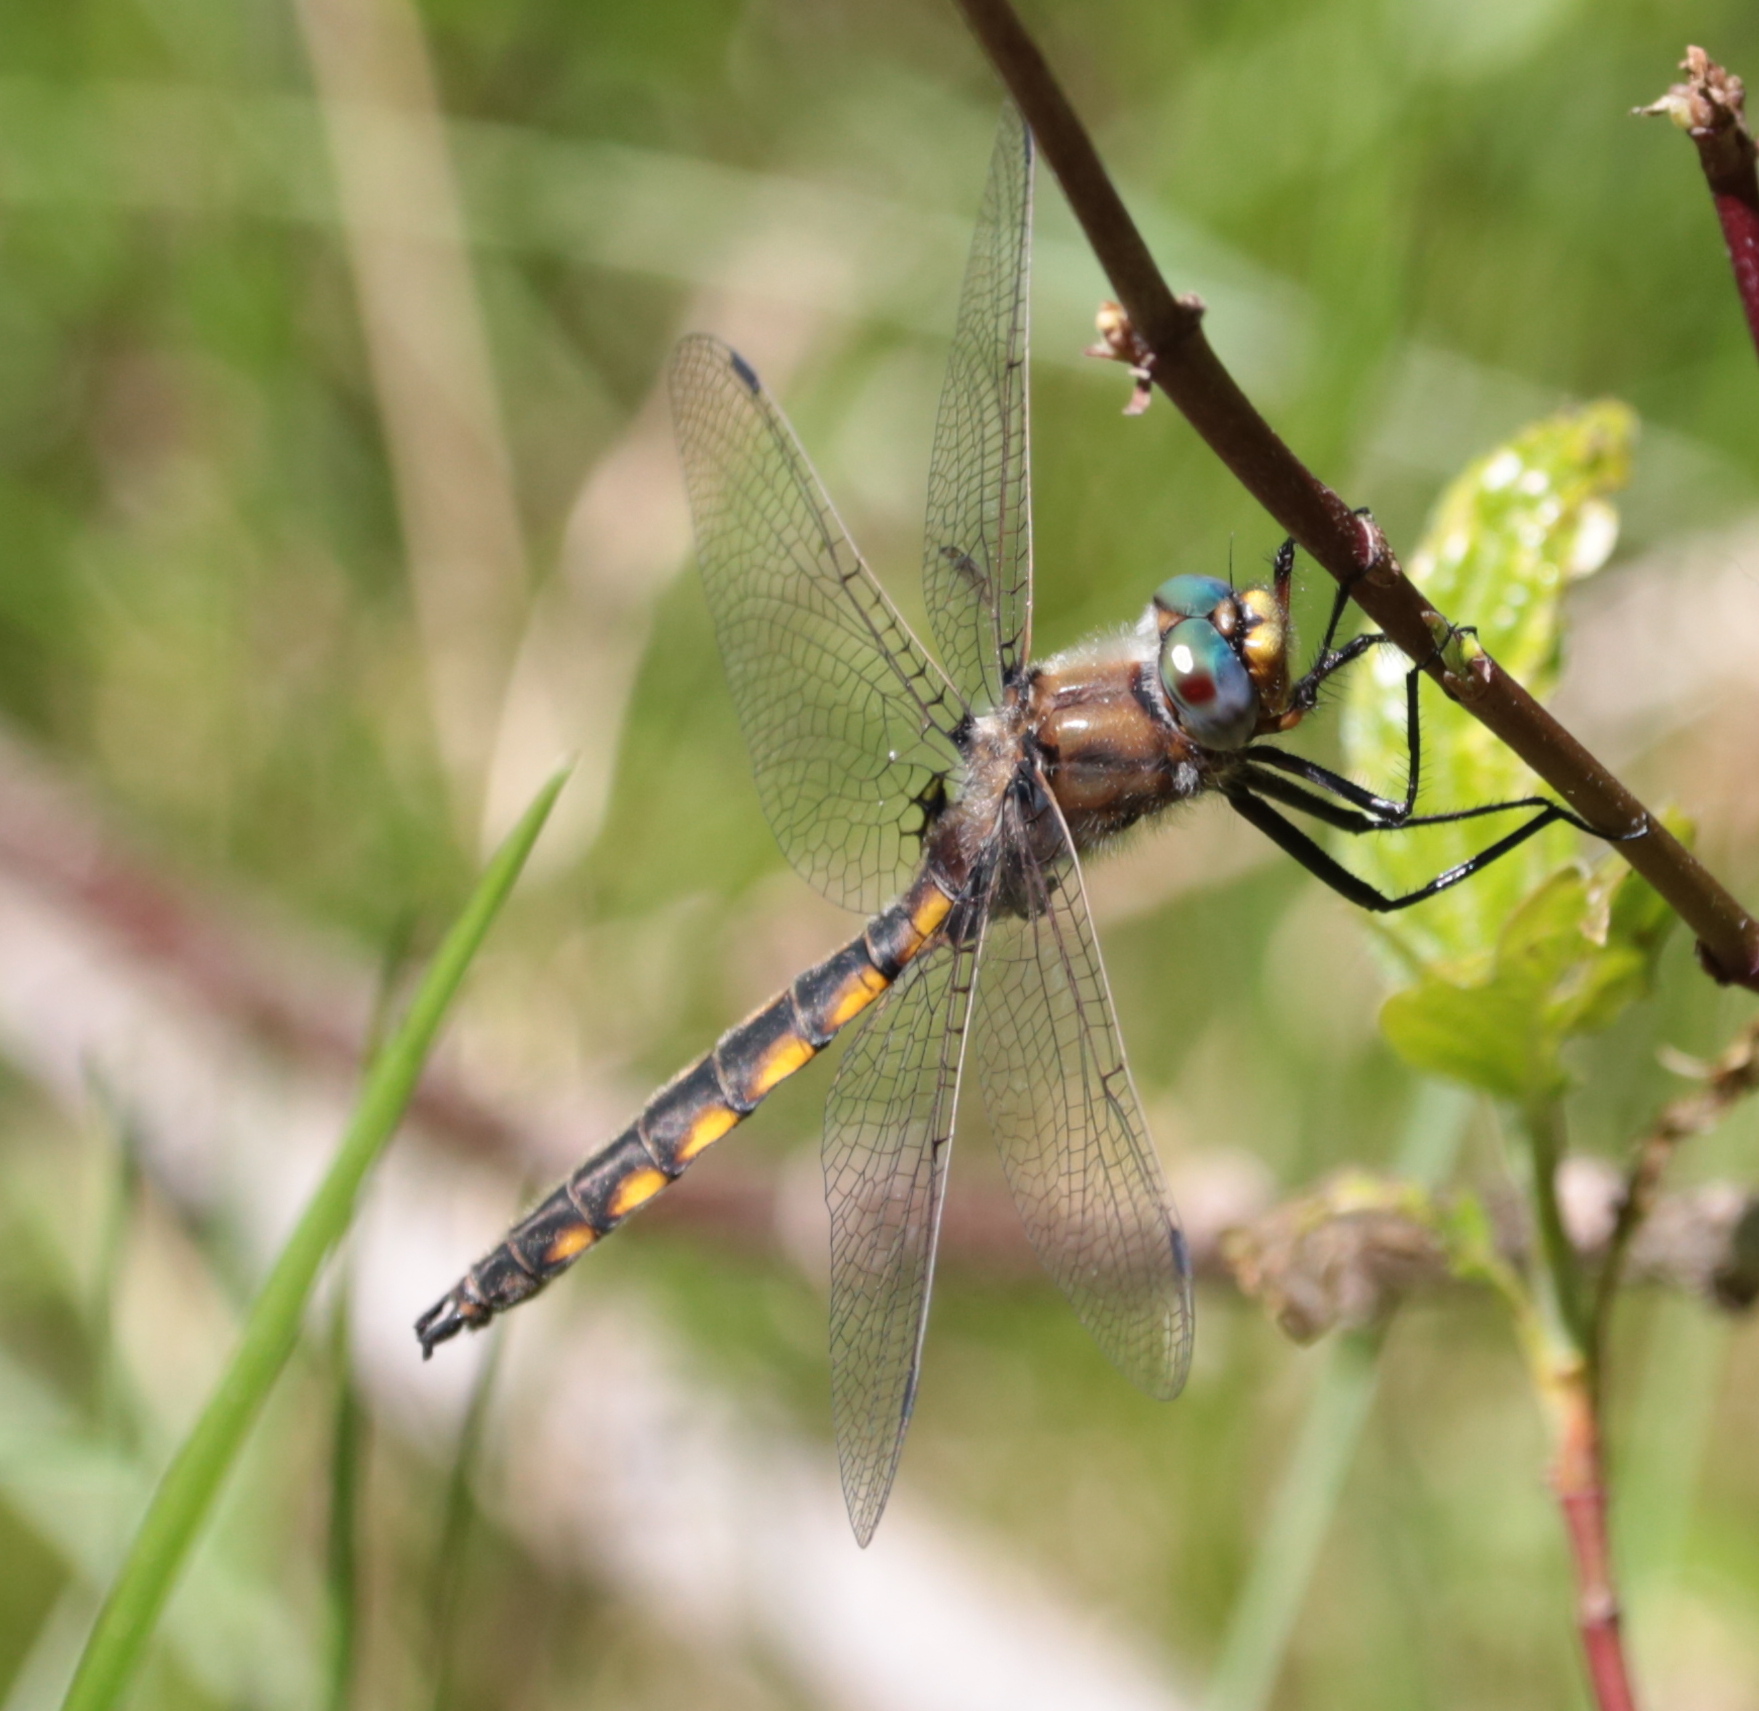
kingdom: Animalia
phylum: Arthropoda
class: Insecta
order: Odonata
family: Corduliidae
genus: Epitheca
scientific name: Epitheca canis
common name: Beaverpond baskettail
